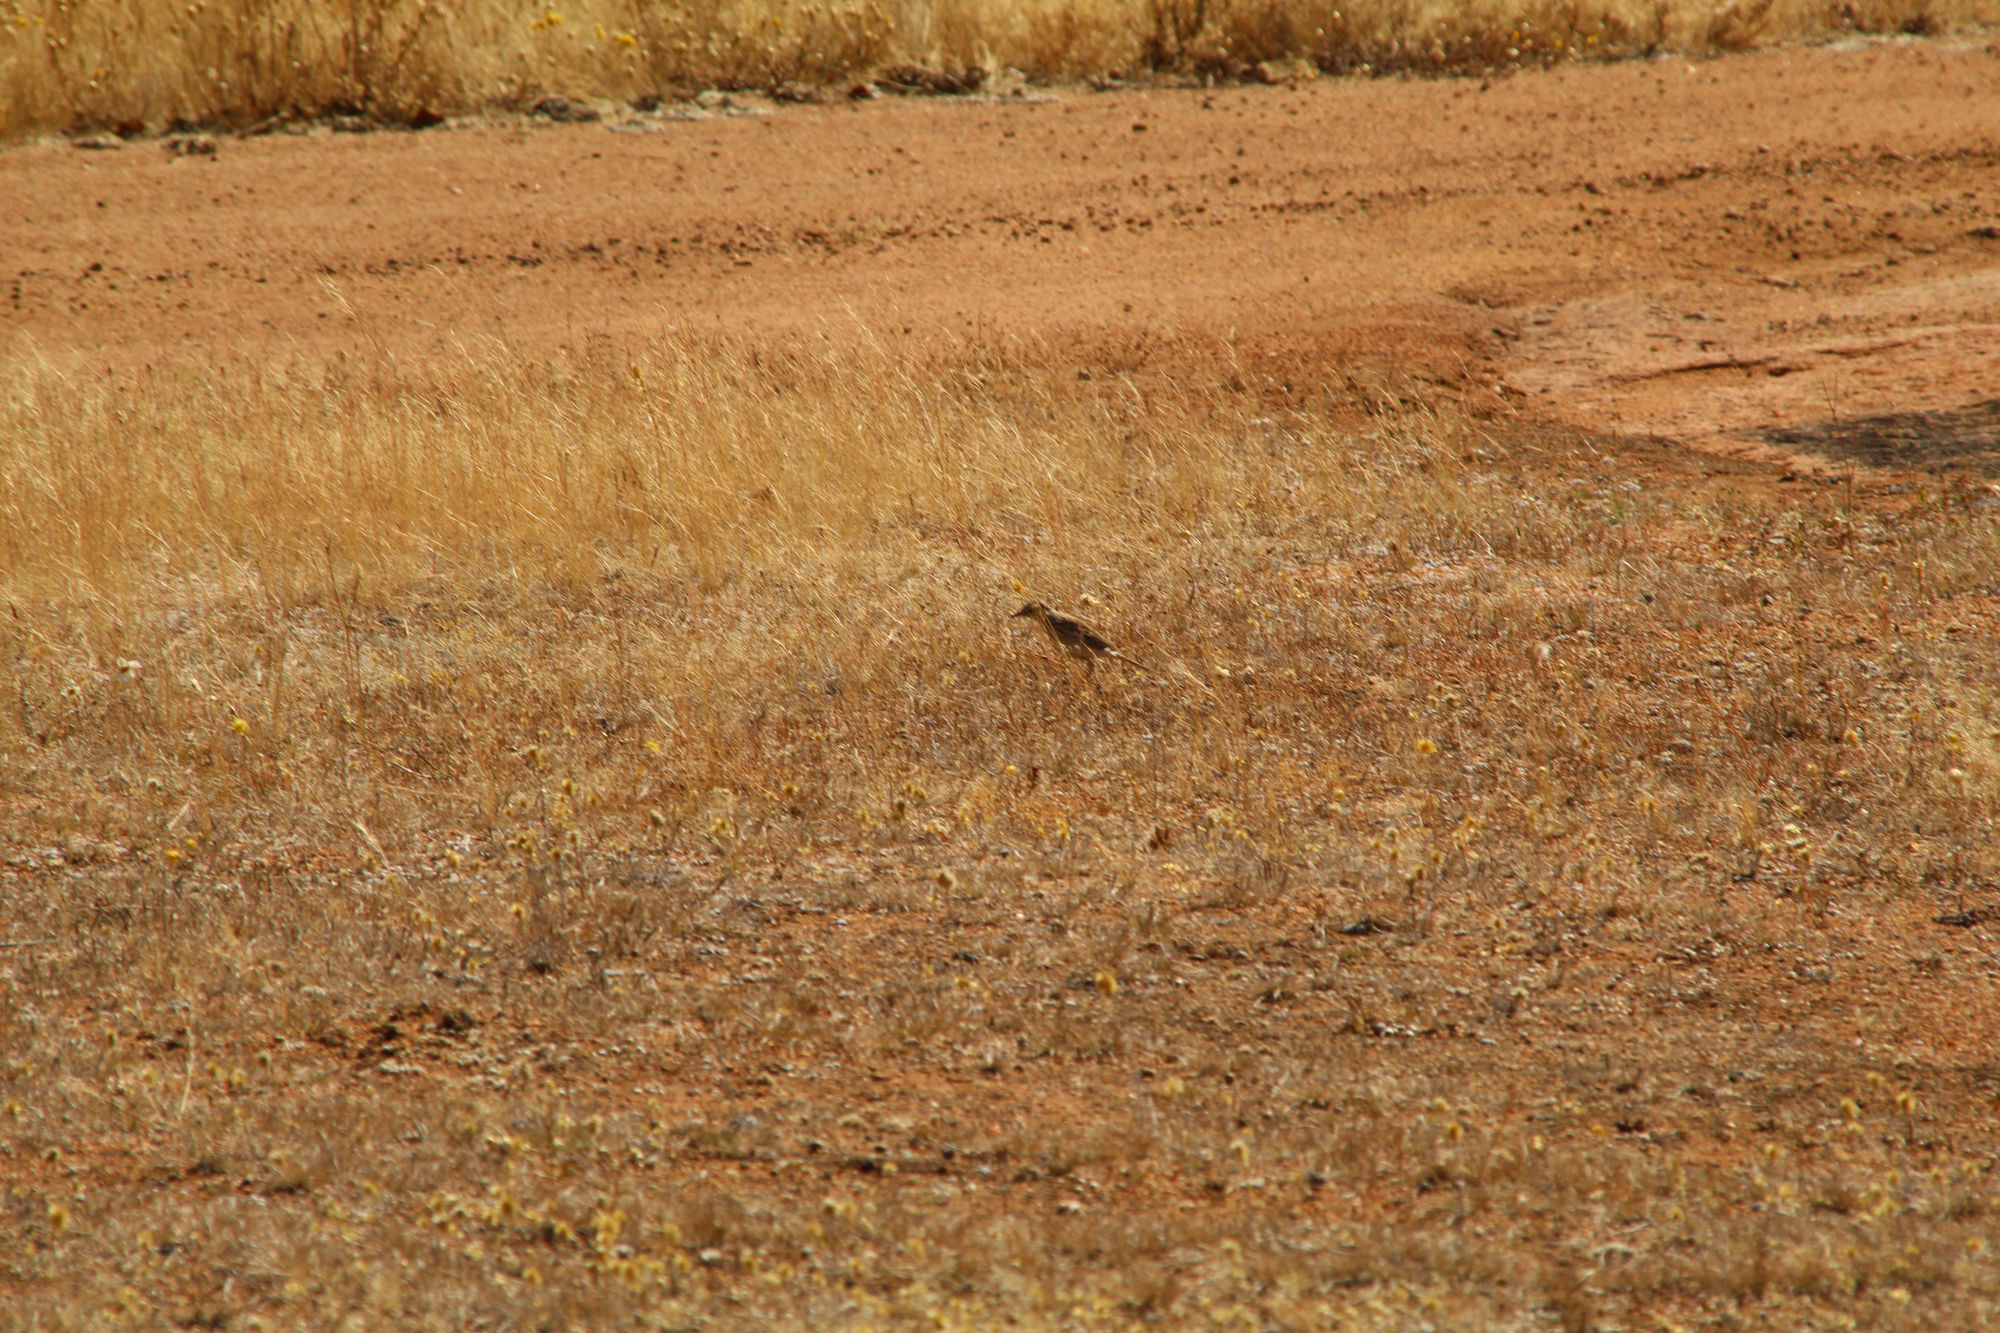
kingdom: Animalia
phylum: Chordata
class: Aves
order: Passeriformes
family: Motacillidae
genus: Anthus
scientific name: Anthus australis
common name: Australian pipit
